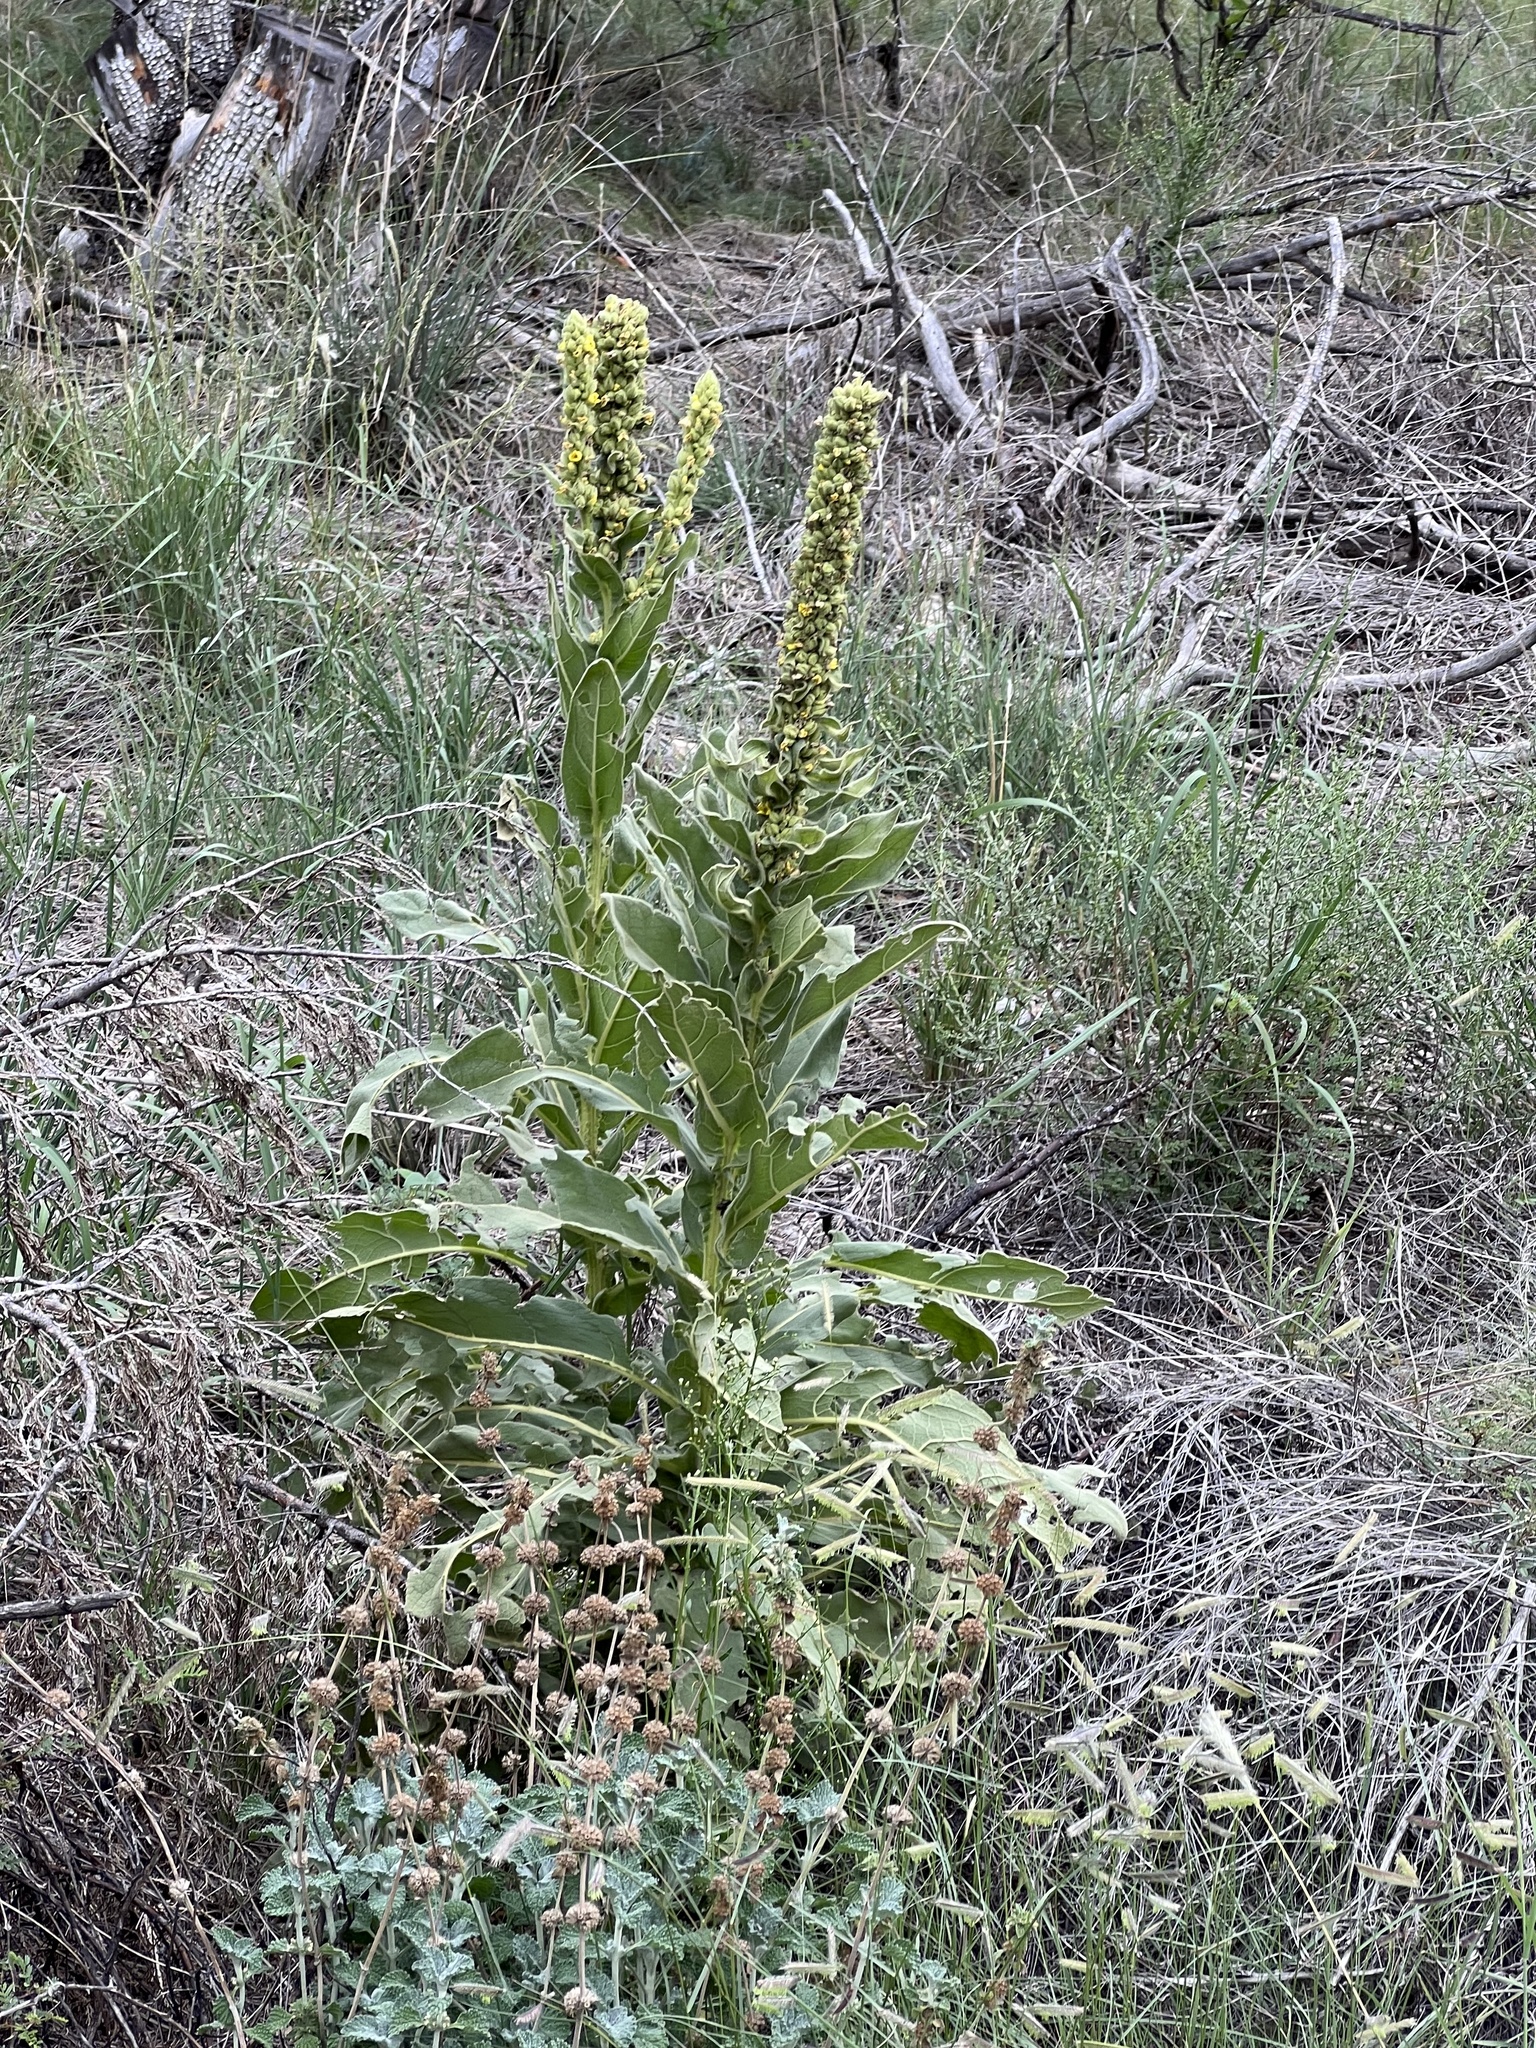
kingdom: Plantae
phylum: Tracheophyta
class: Magnoliopsida
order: Lamiales
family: Scrophulariaceae
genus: Verbascum
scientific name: Verbascum thapsus
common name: Common mullein
